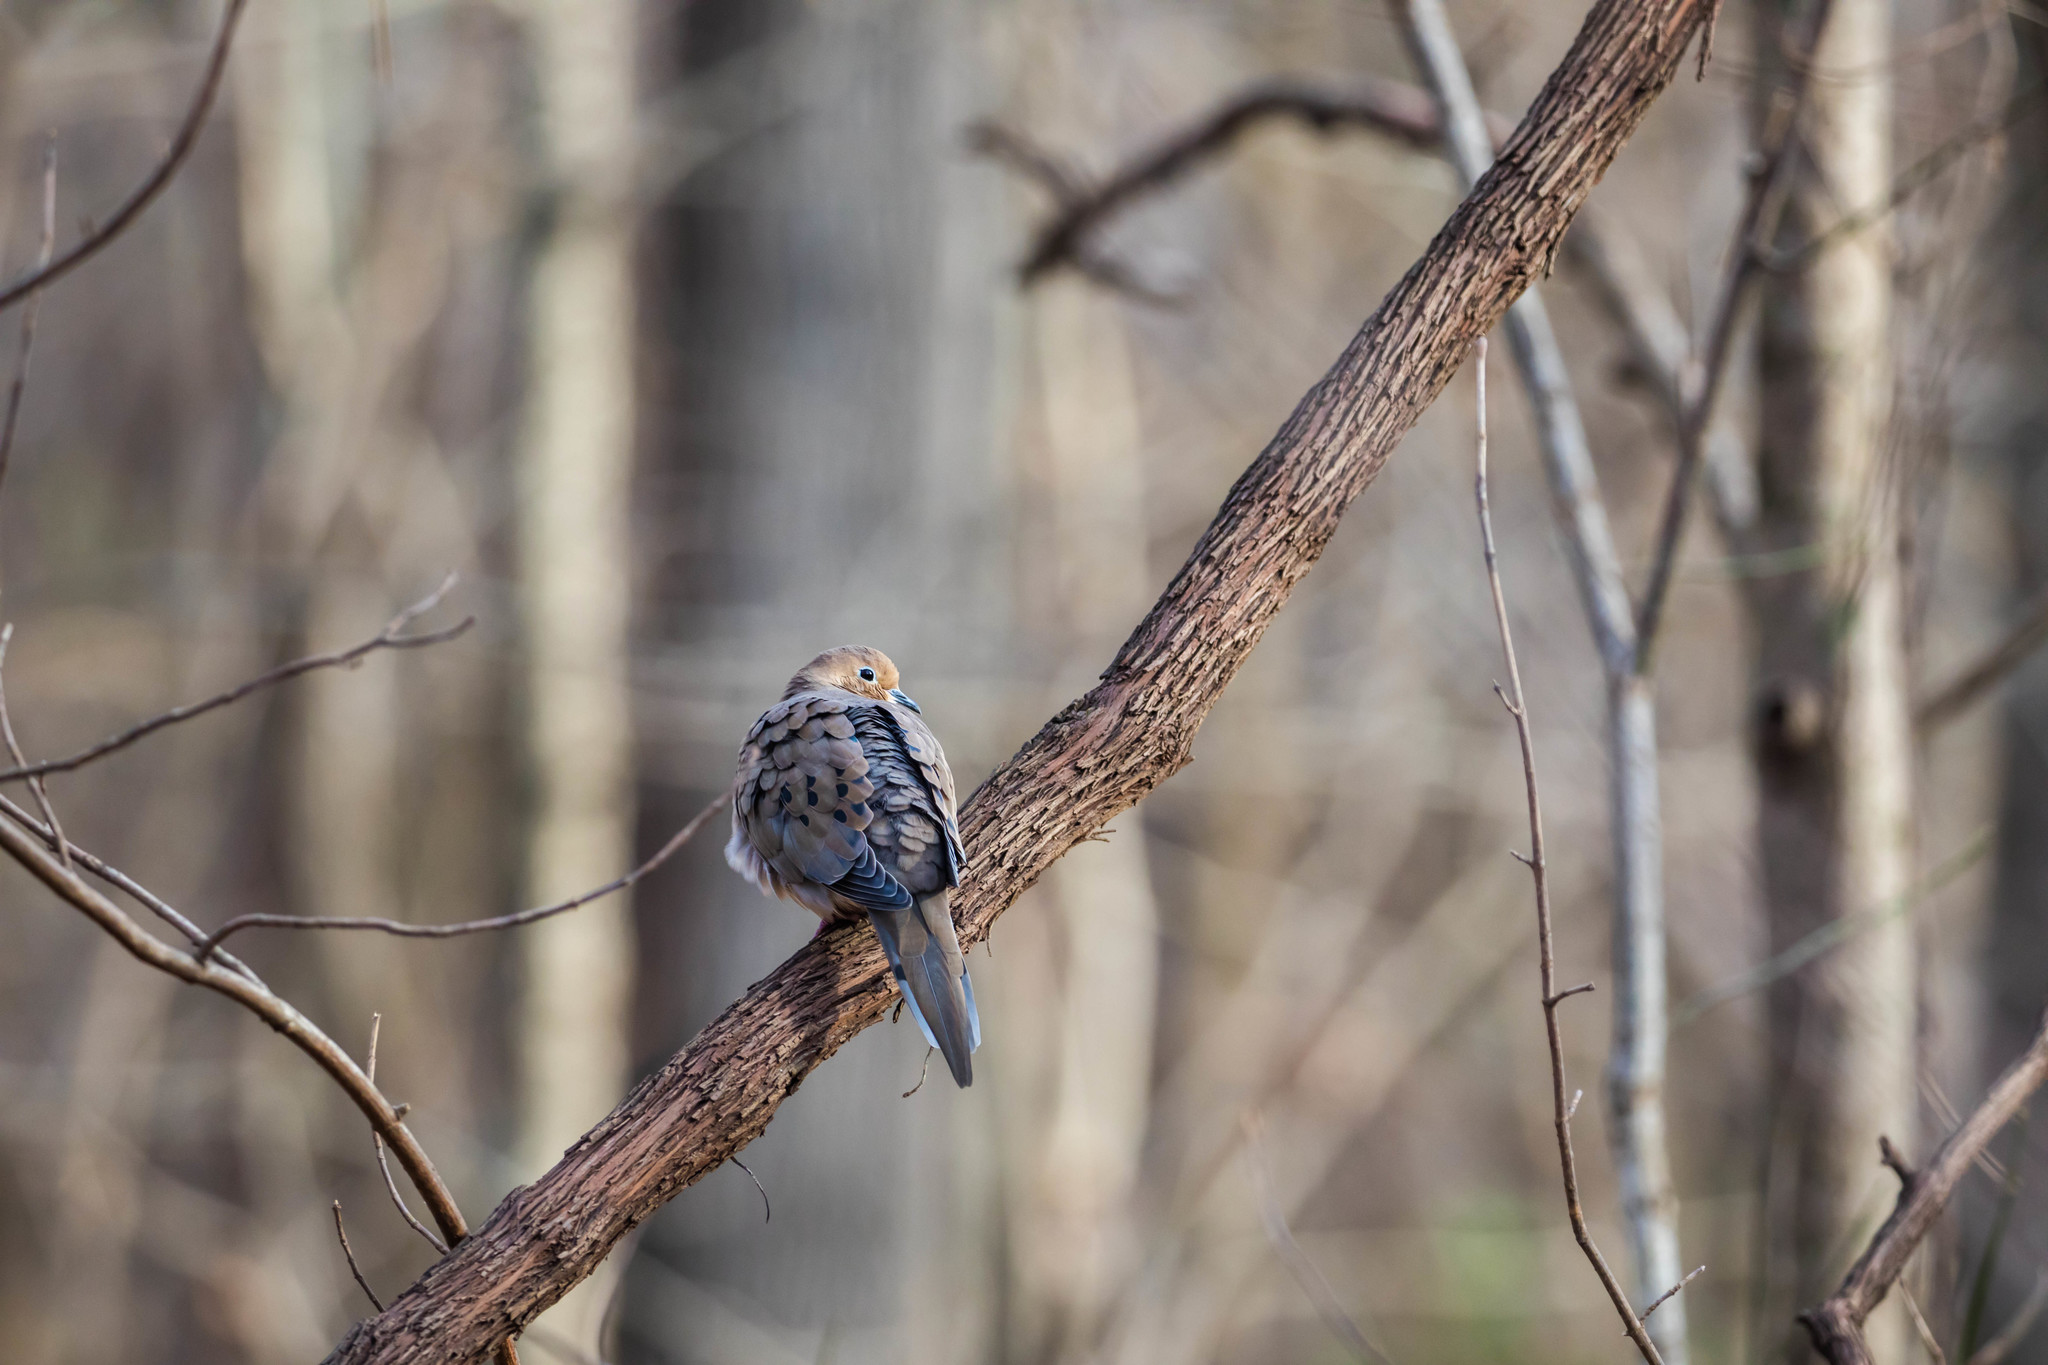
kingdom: Animalia
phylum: Chordata
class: Aves
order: Columbiformes
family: Columbidae
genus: Zenaida
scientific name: Zenaida macroura
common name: Mourning dove
